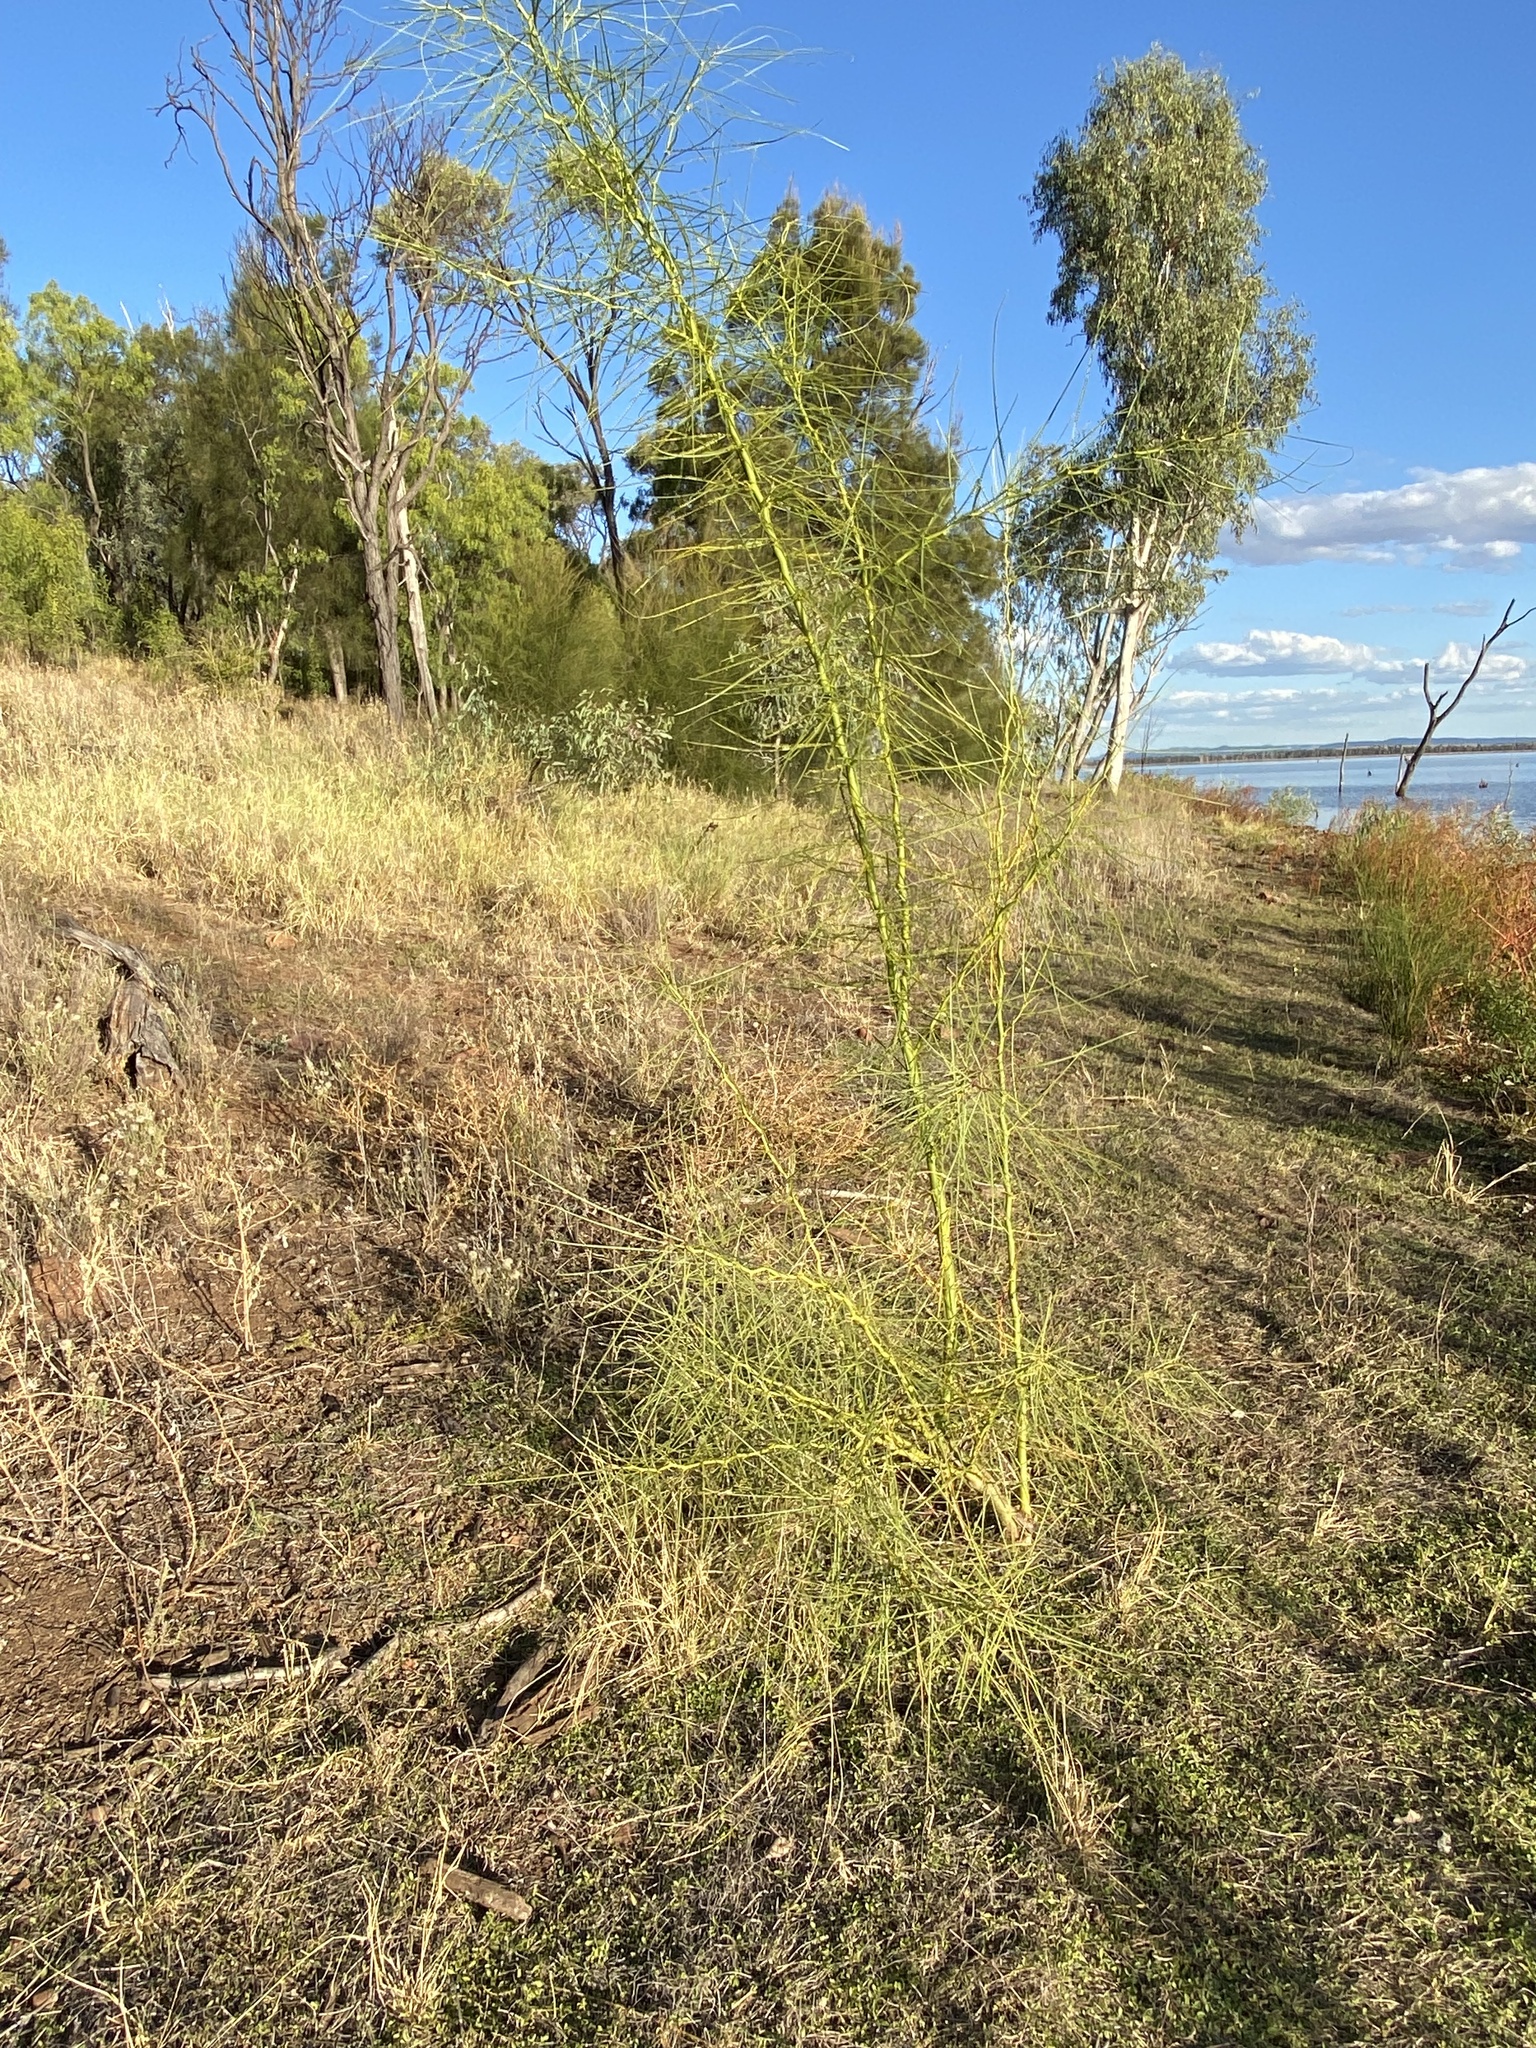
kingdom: Plantae
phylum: Tracheophyta
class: Magnoliopsida
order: Fabales
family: Fabaceae
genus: Parkinsonia
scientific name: Parkinsonia aculeata
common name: Jerusalem thorn
